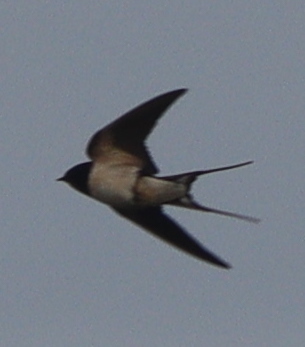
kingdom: Animalia
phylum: Chordata
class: Aves
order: Passeriformes
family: Hirundinidae
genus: Hirundo
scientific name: Hirundo rustica
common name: Barn swallow
